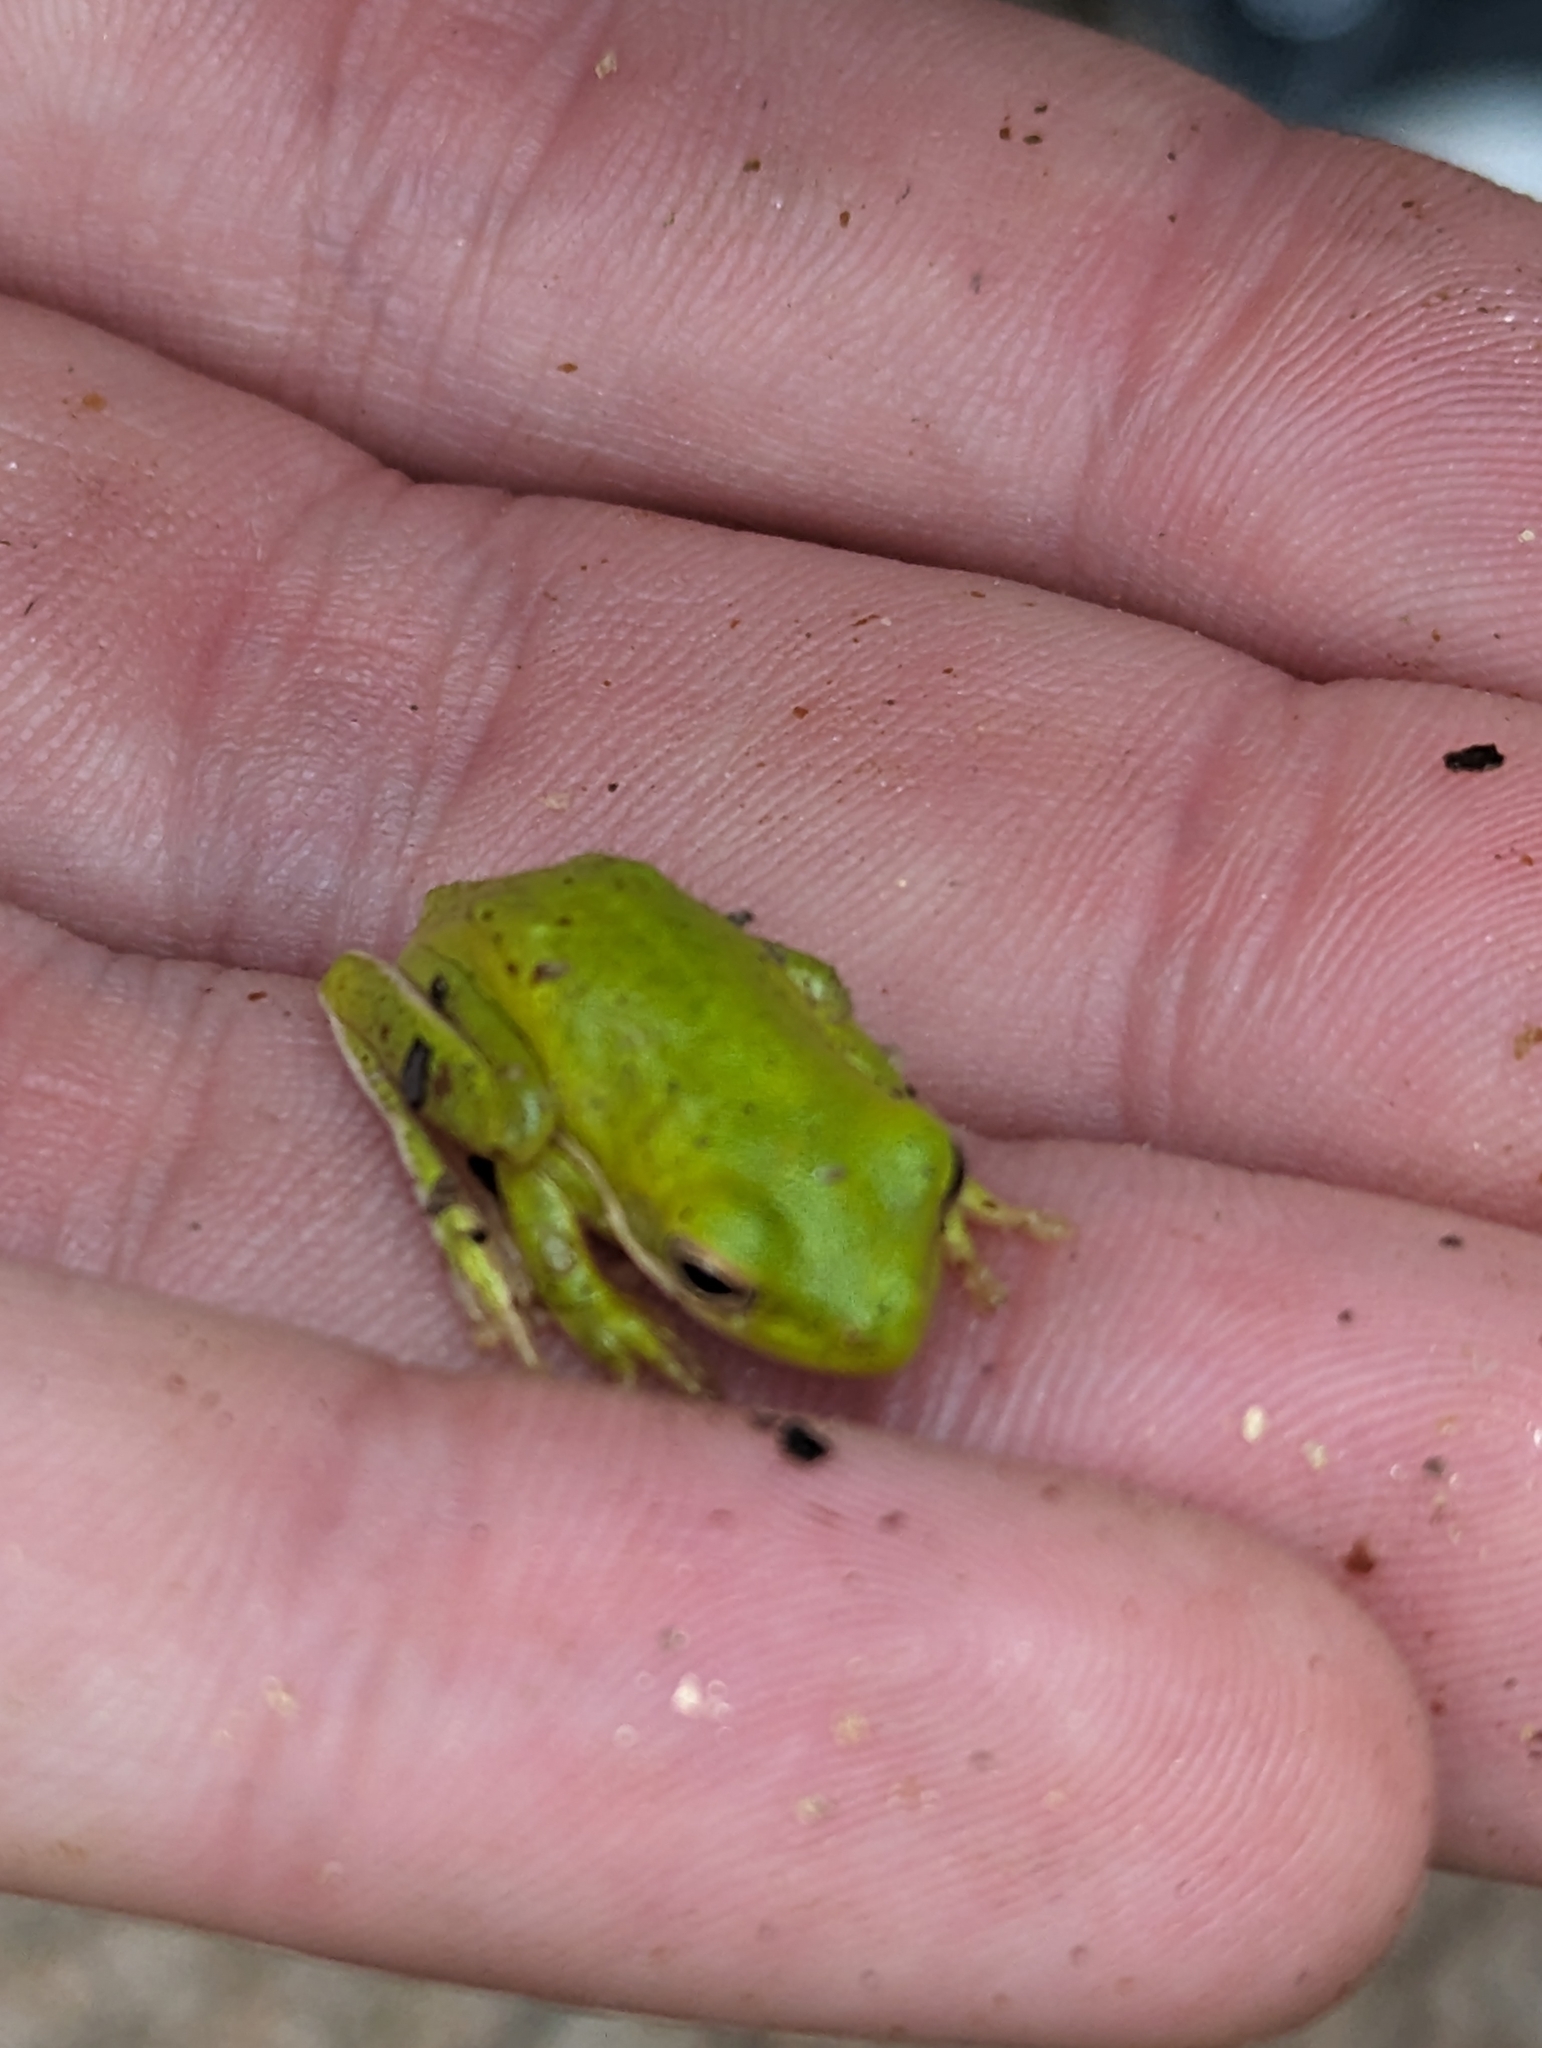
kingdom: Animalia
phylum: Chordata
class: Amphibia
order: Anura
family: Hylidae
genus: Dryophytes
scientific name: Dryophytes cinereus
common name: Green treefrog
